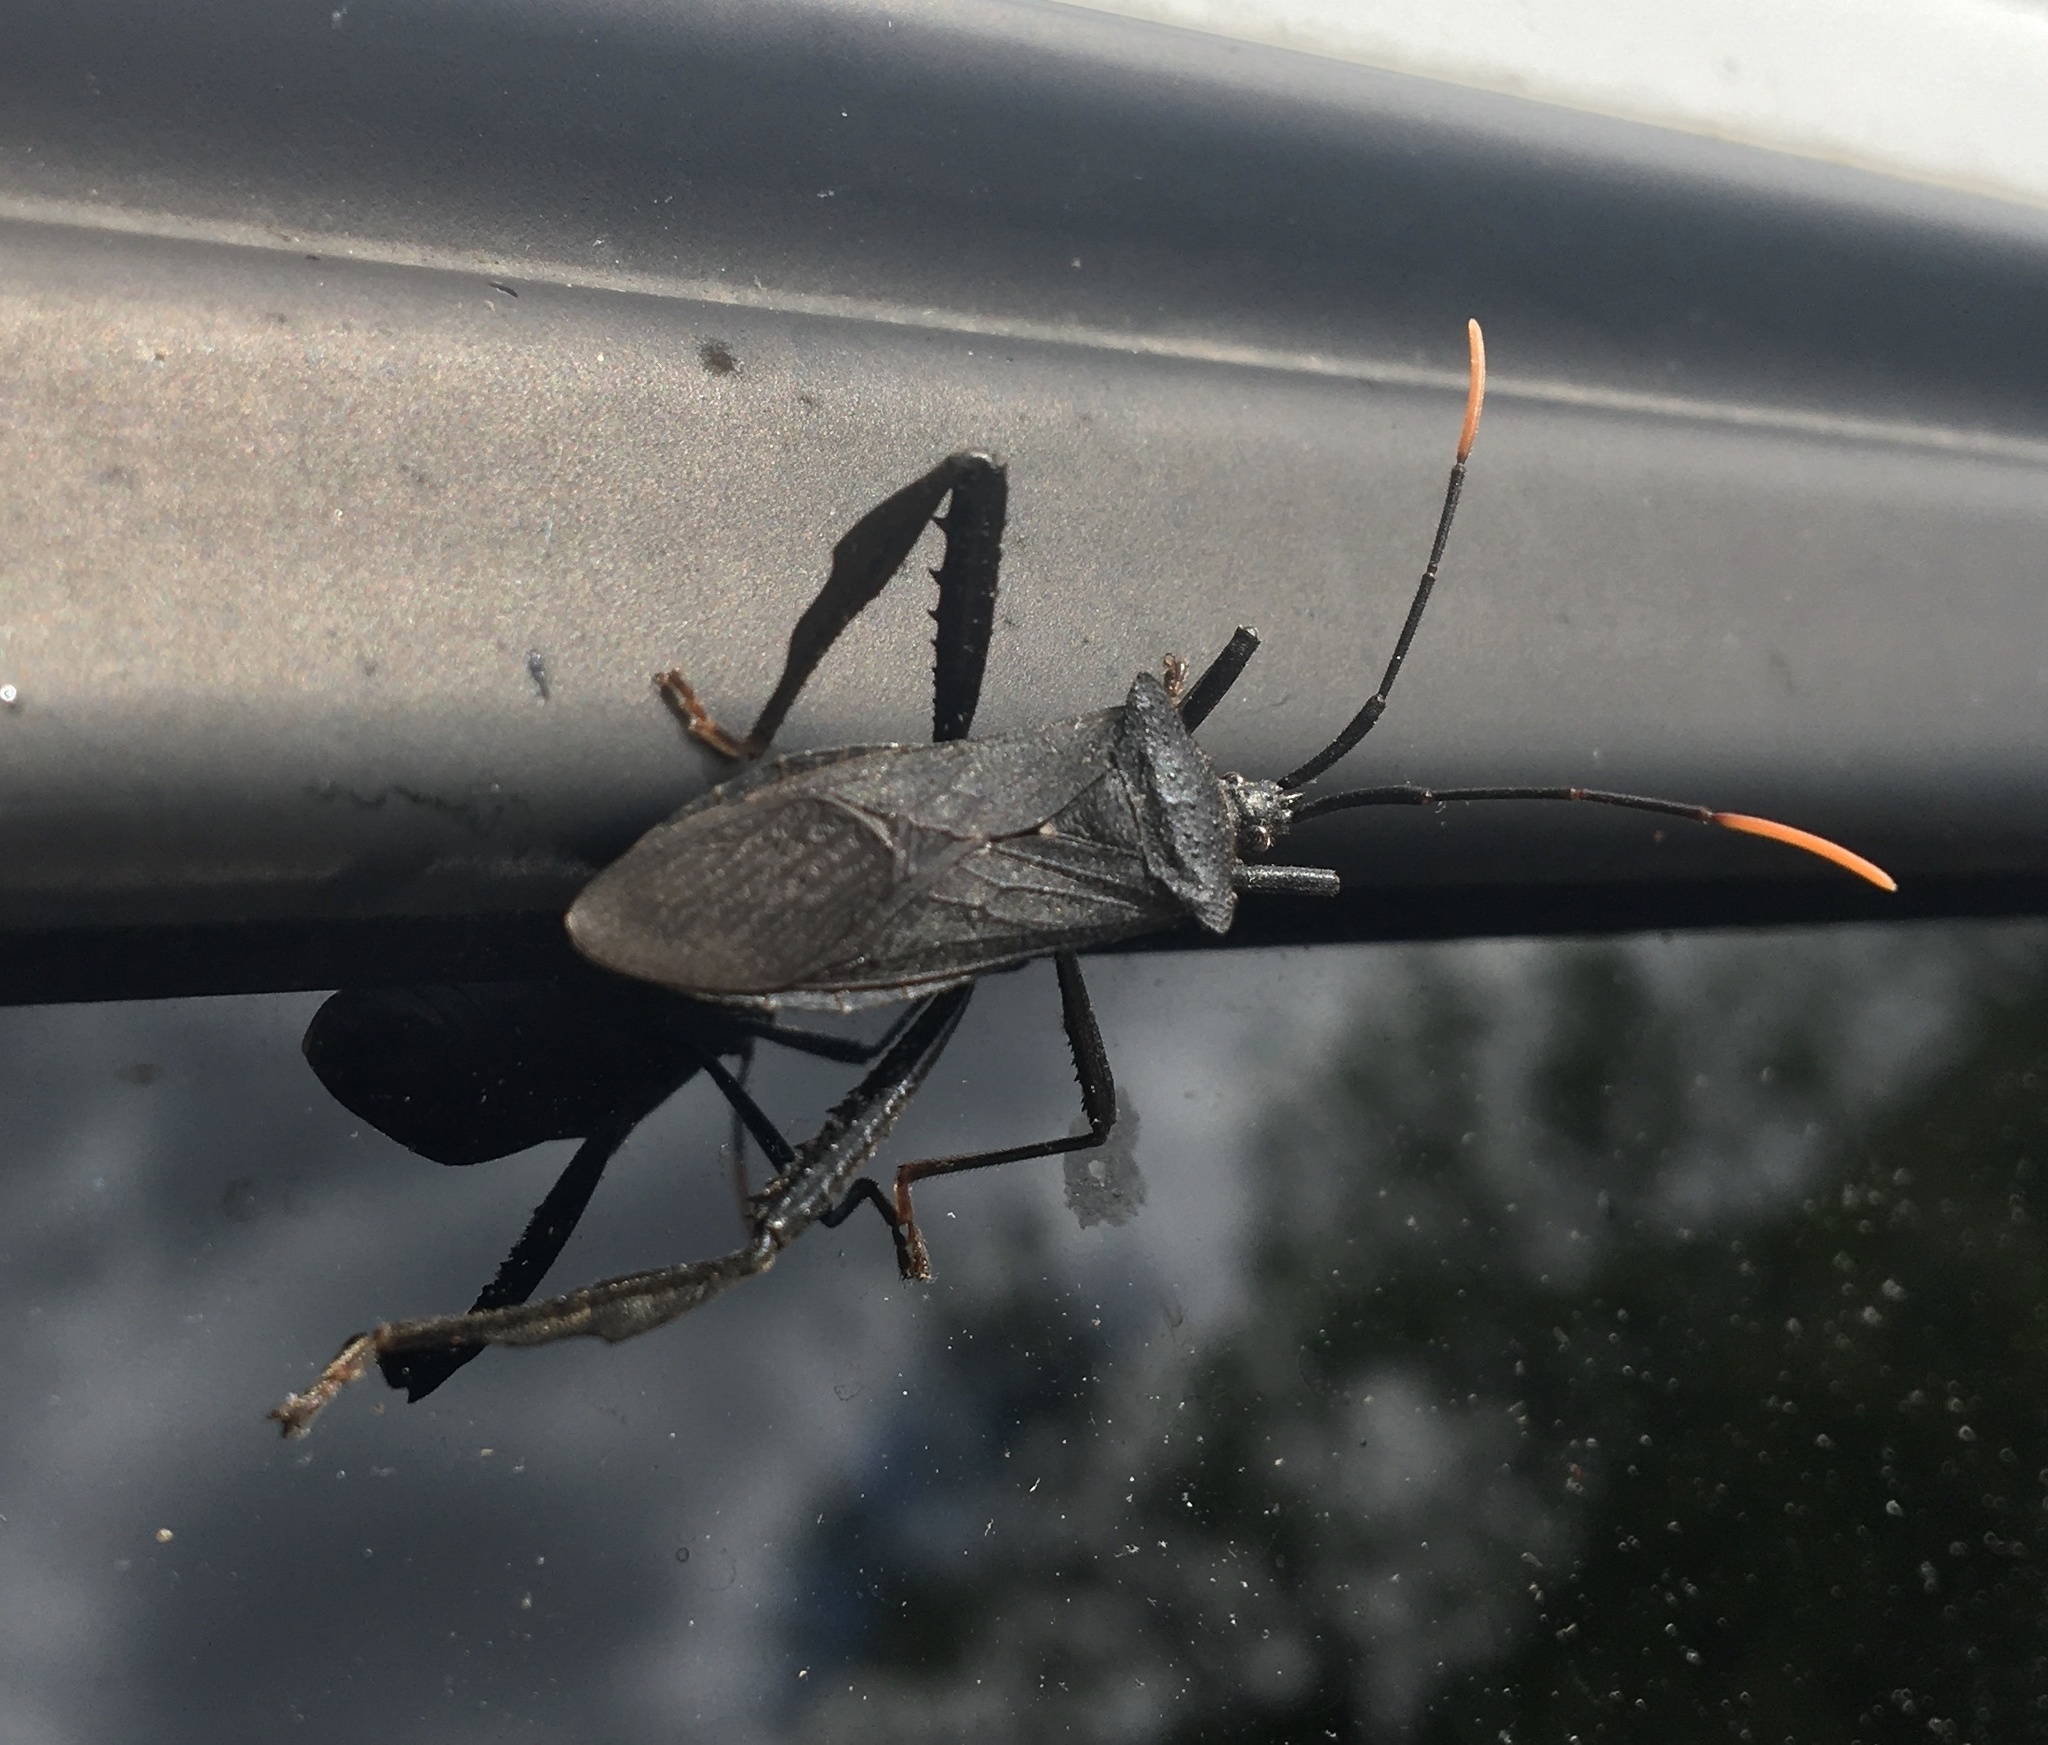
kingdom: Animalia
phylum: Arthropoda
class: Insecta
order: Hemiptera
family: Coreidae
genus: Acanthocephala
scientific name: Acanthocephala terminalis
